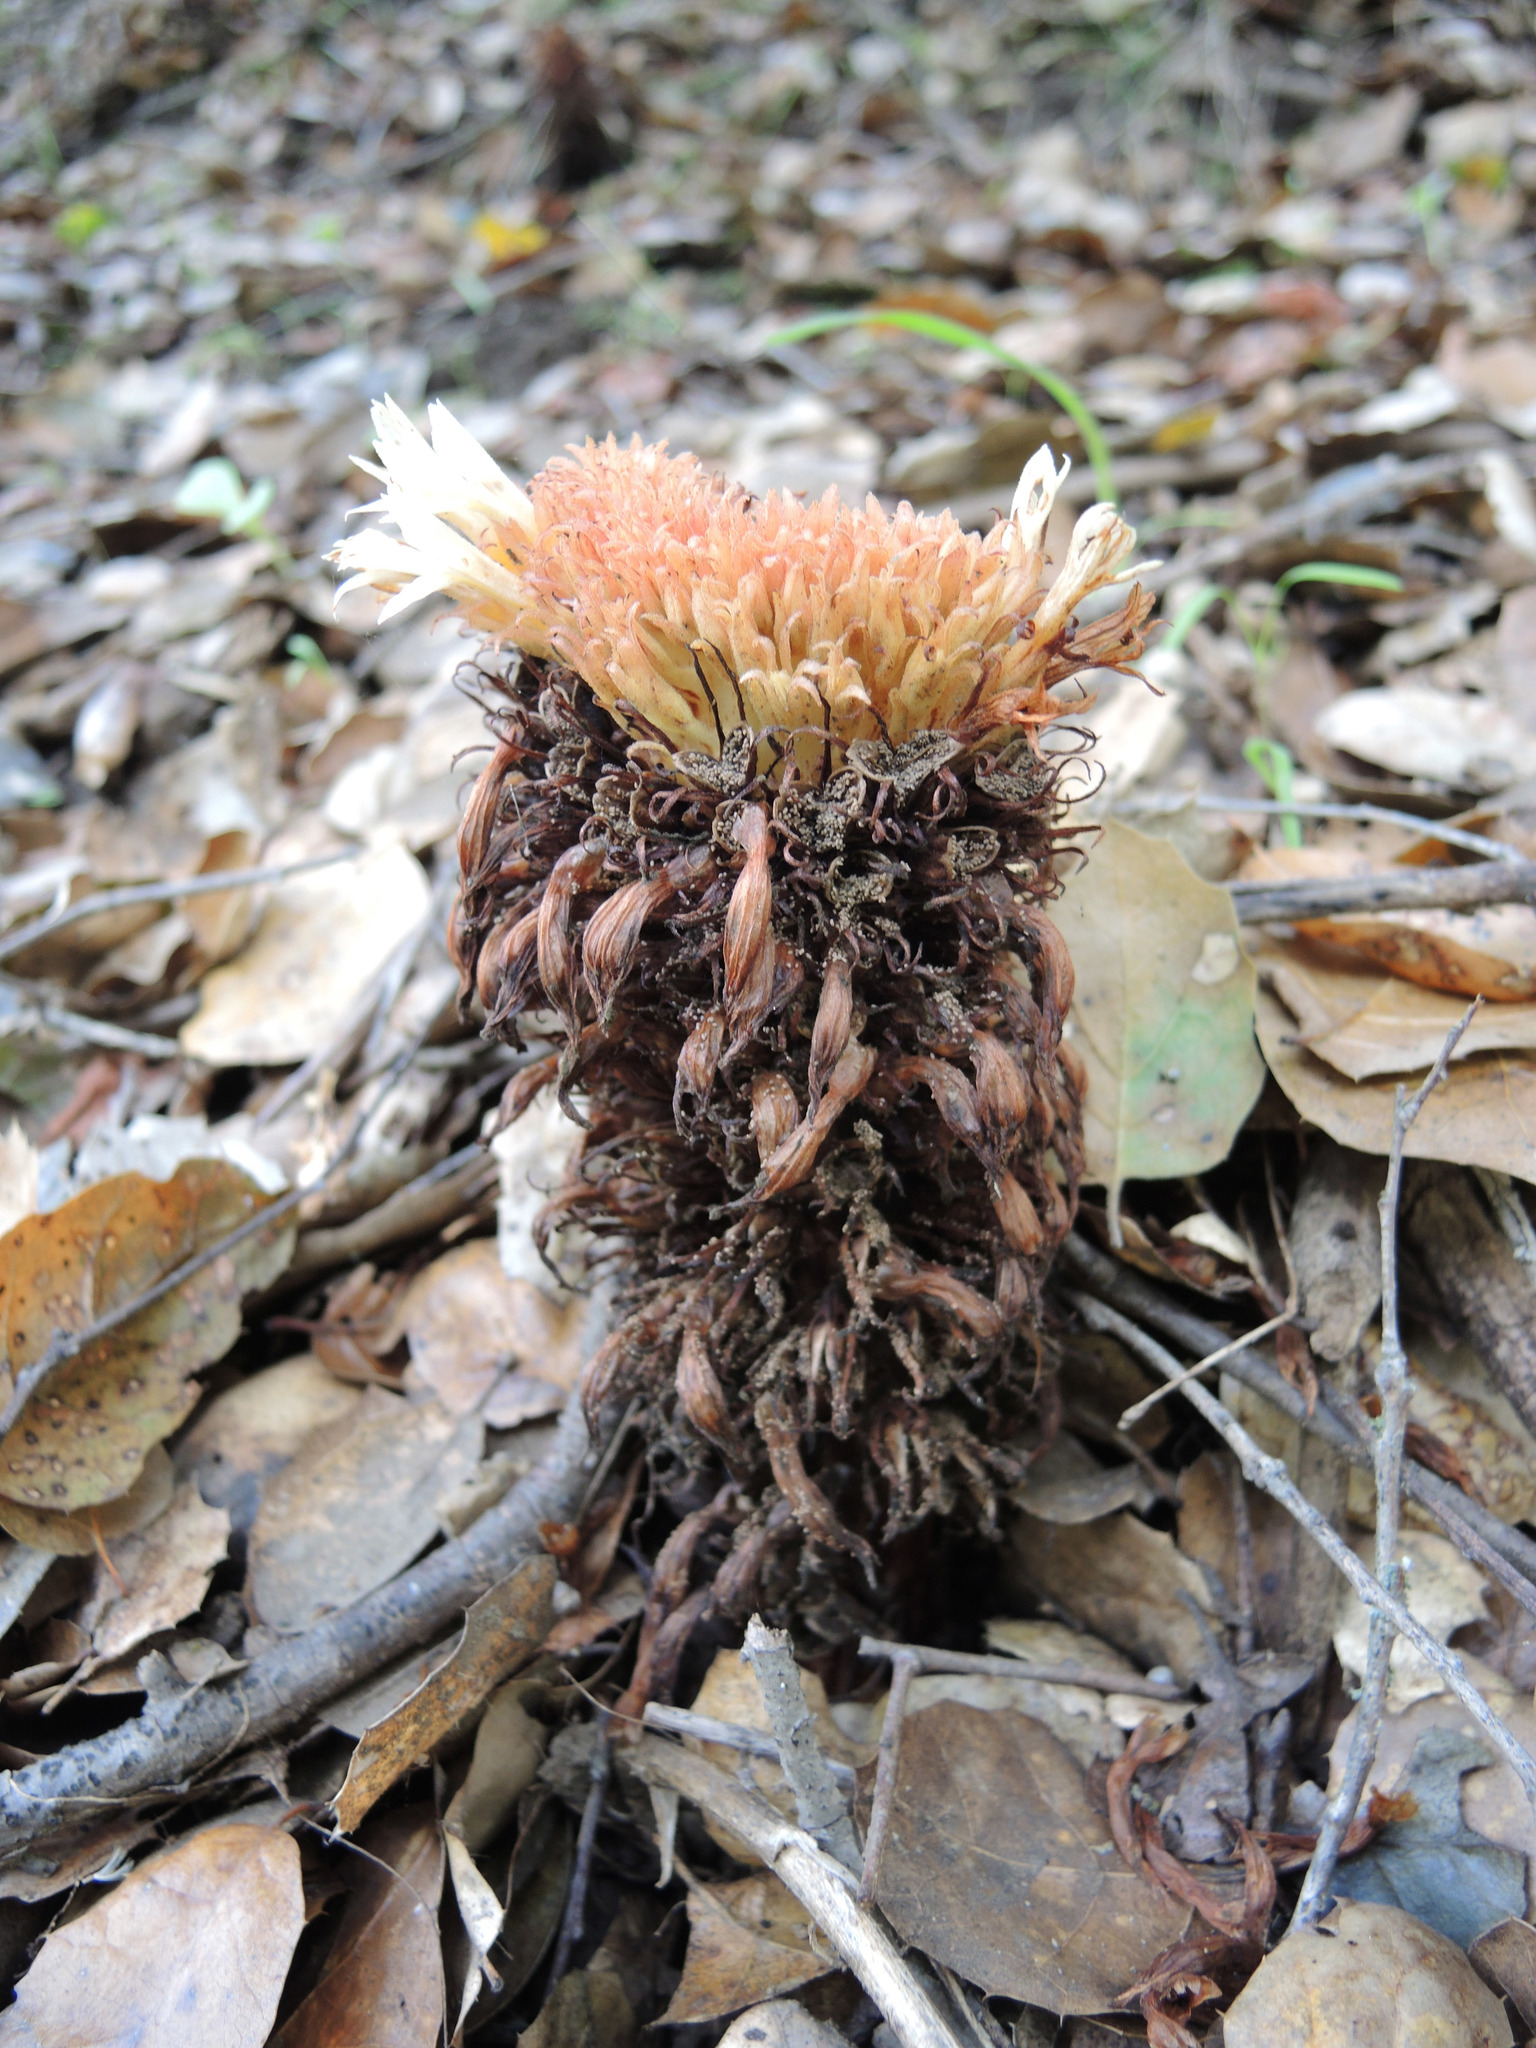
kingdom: Plantae
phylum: Tracheophyta
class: Magnoliopsida
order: Lamiales
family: Orobanchaceae
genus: Aphyllon
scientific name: Aphyllon vallicolum
